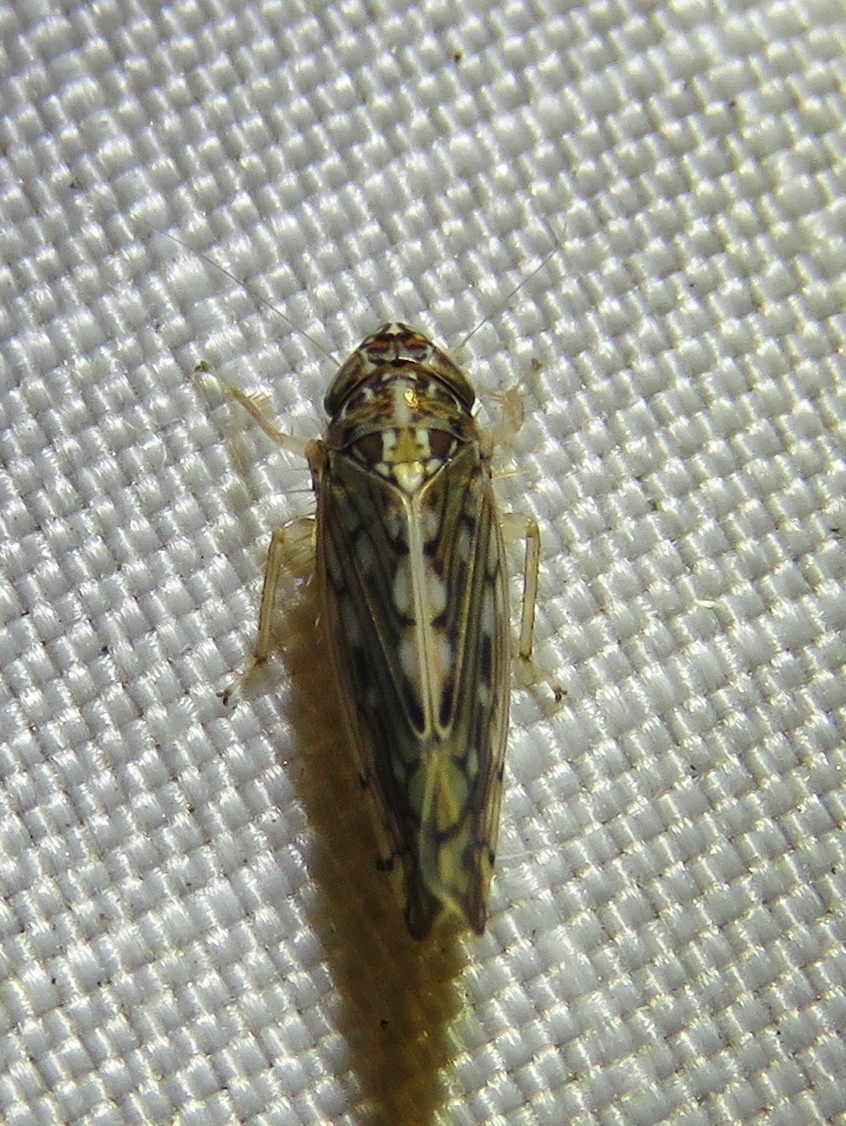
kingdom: Animalia
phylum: Arthropoda
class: Insecta
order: Hemiptera
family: Cicadellidae
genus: Osbornellus
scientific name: Osbornellus clarus
